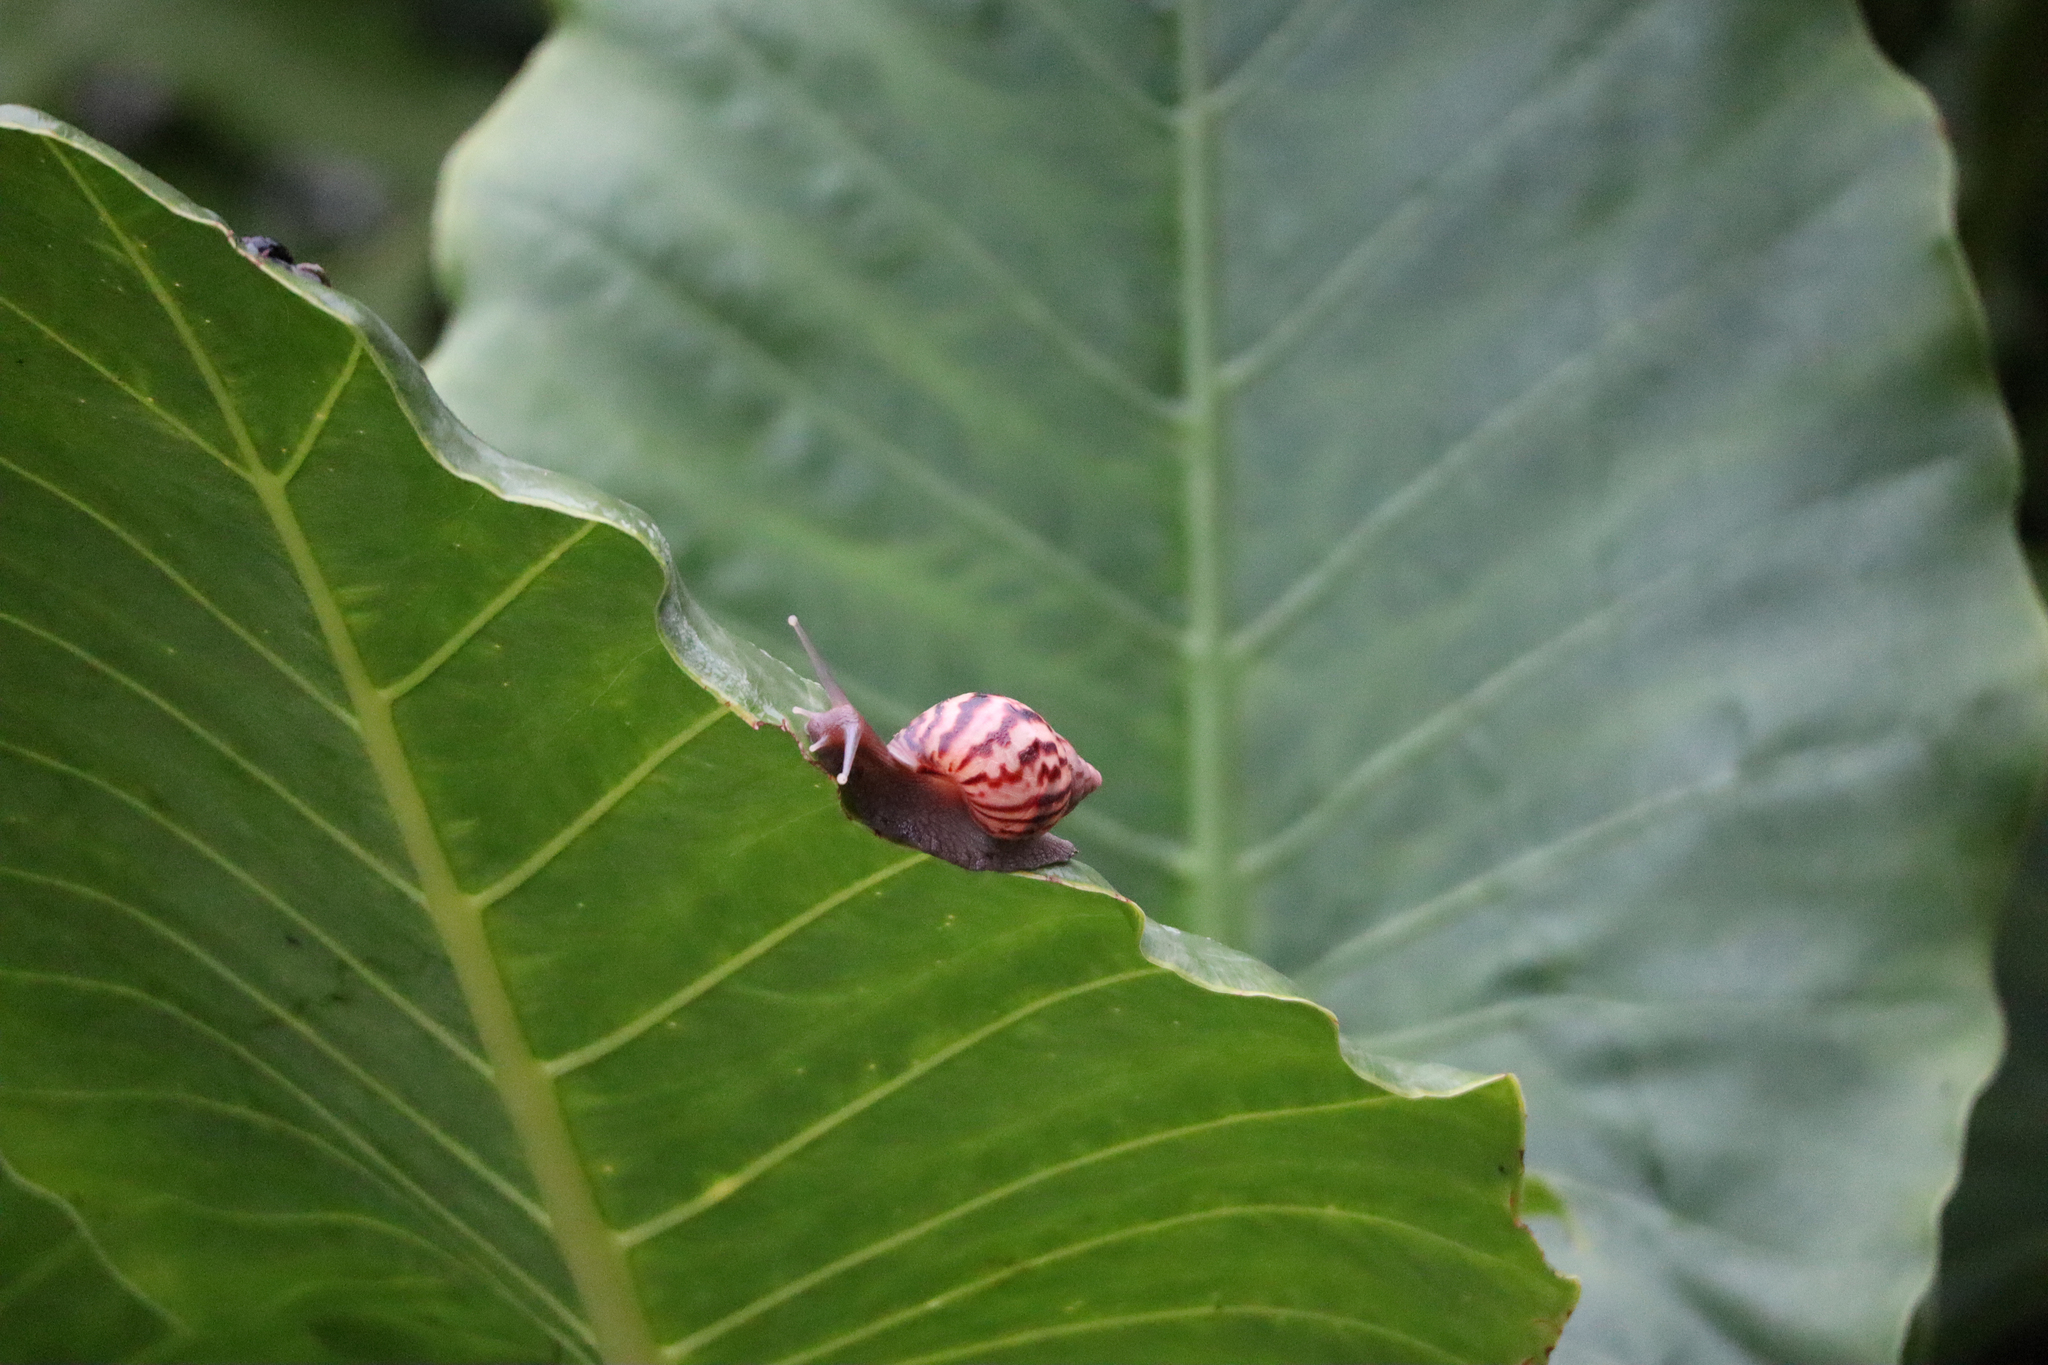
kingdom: Animalia
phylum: Mollusca
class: Gastropoda
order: Stylommatophora
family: Achatinidae
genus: Lissachatina
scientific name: Lissachatina fulica
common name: Giant african snail
